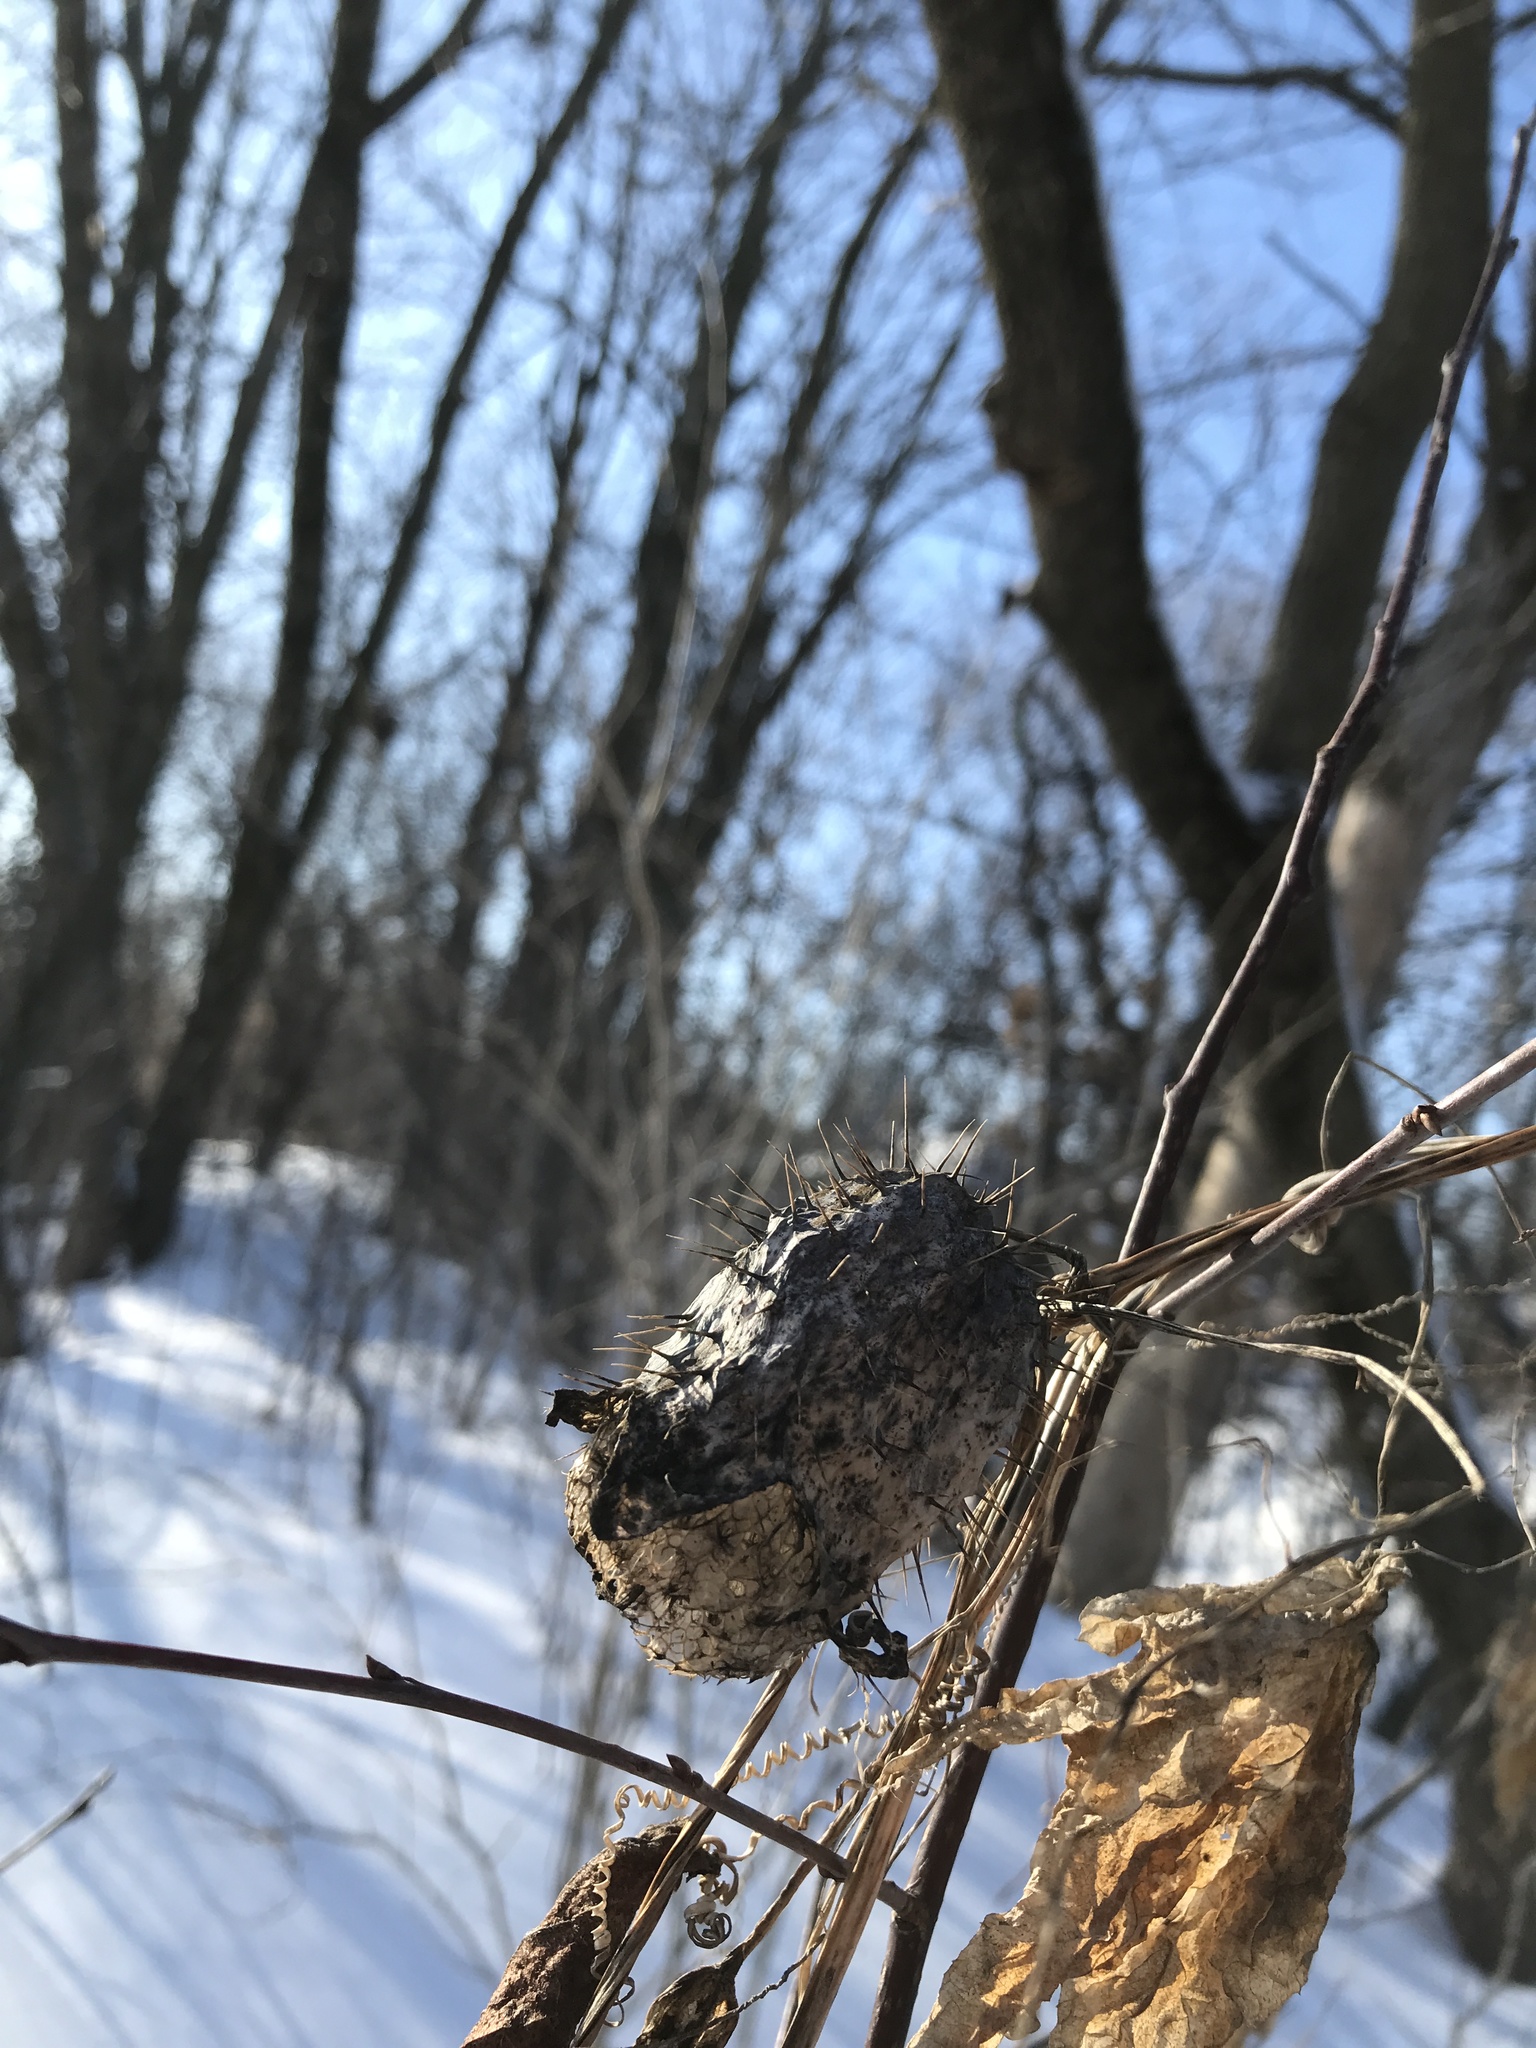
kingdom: Plantae
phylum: Tracheophyta
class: Magnoliopsida
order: Cucurbitales
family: Cucurbitaceae
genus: Echinocystis
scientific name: Echinocystis lobata
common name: Wild cucumber
